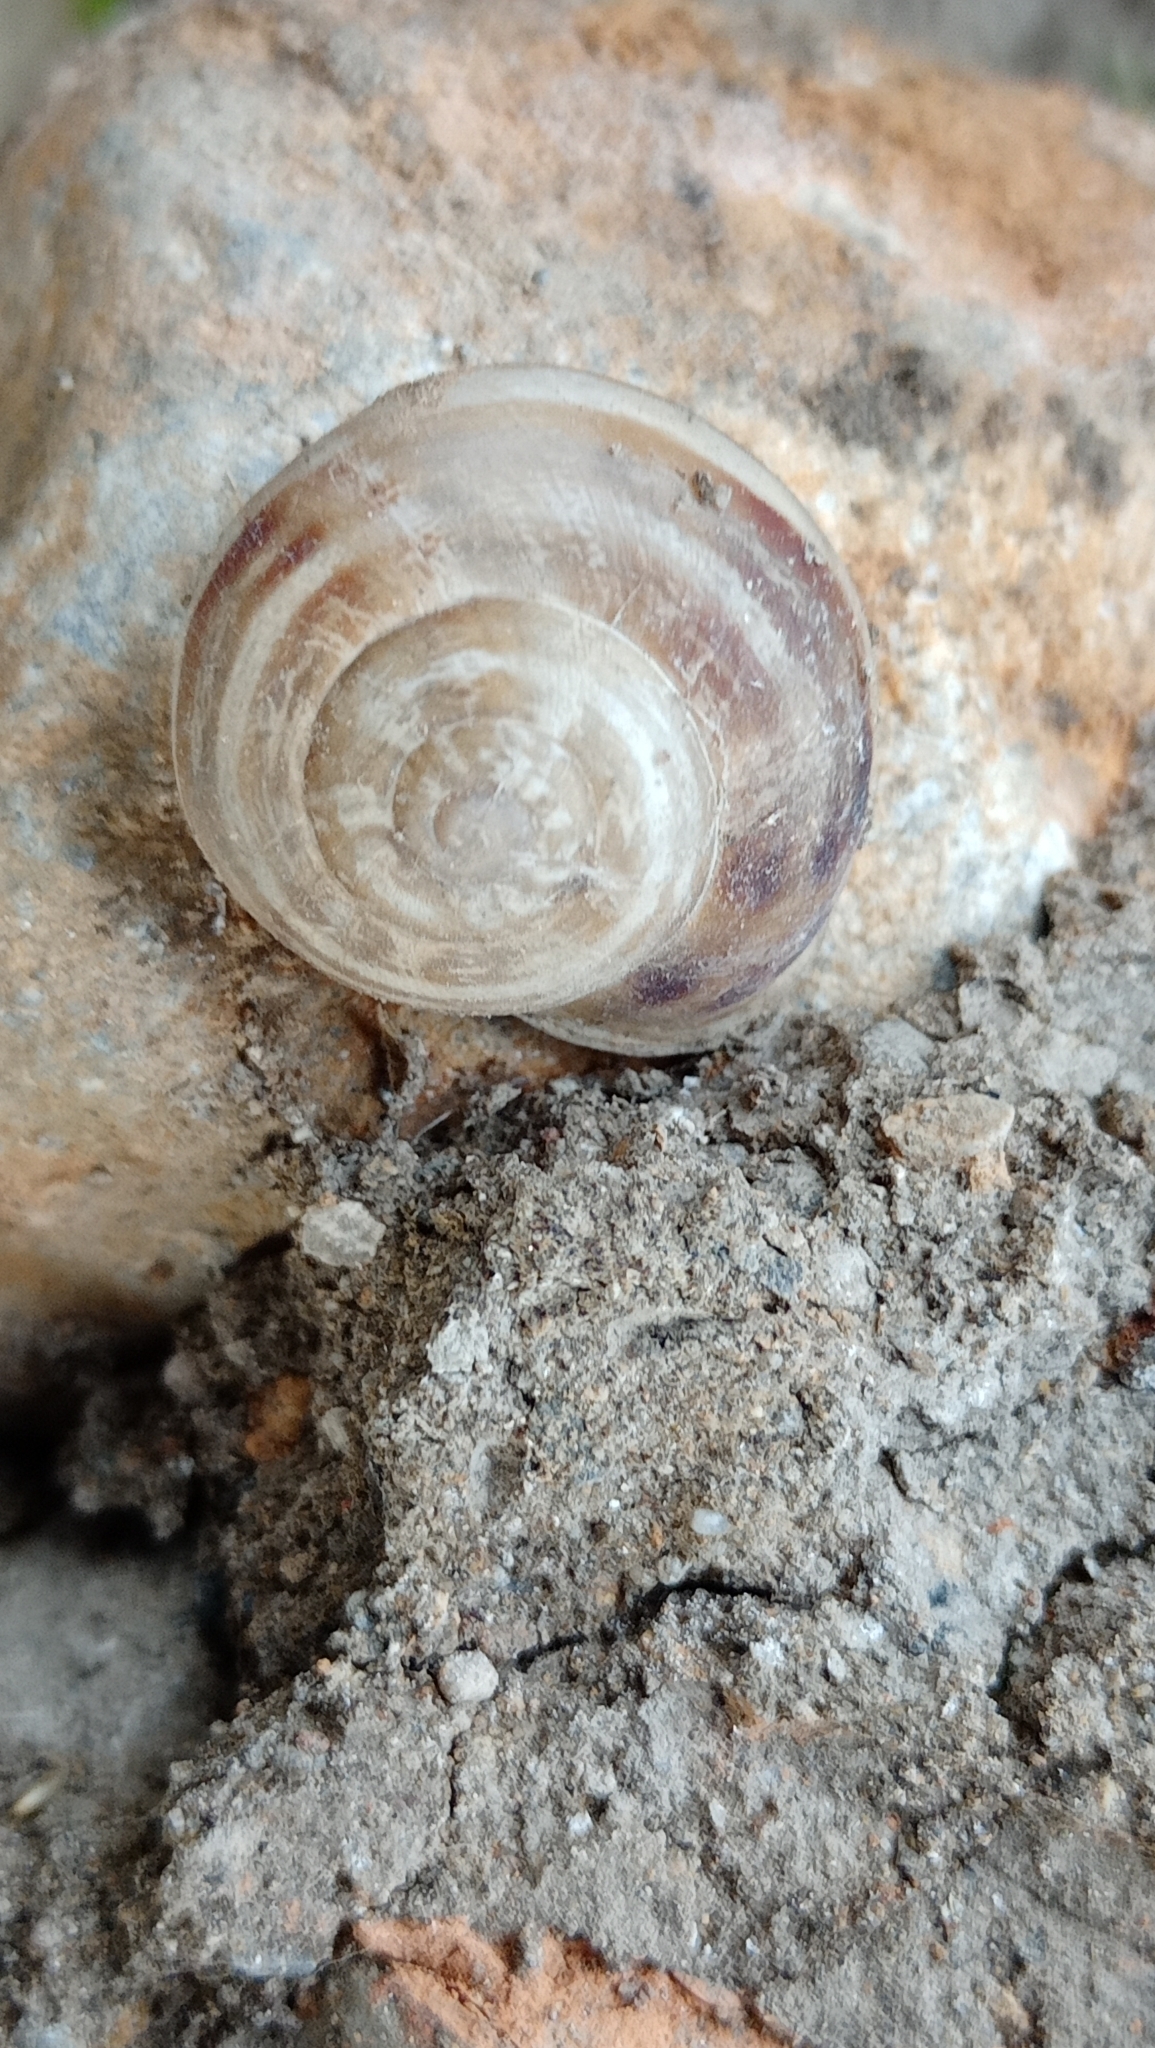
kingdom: Animalia
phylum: Mollusca
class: Gastropoda
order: Stylommatophora
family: Helicidae
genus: Eobania
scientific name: Eobania vermiculata
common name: Chocolateband snail
